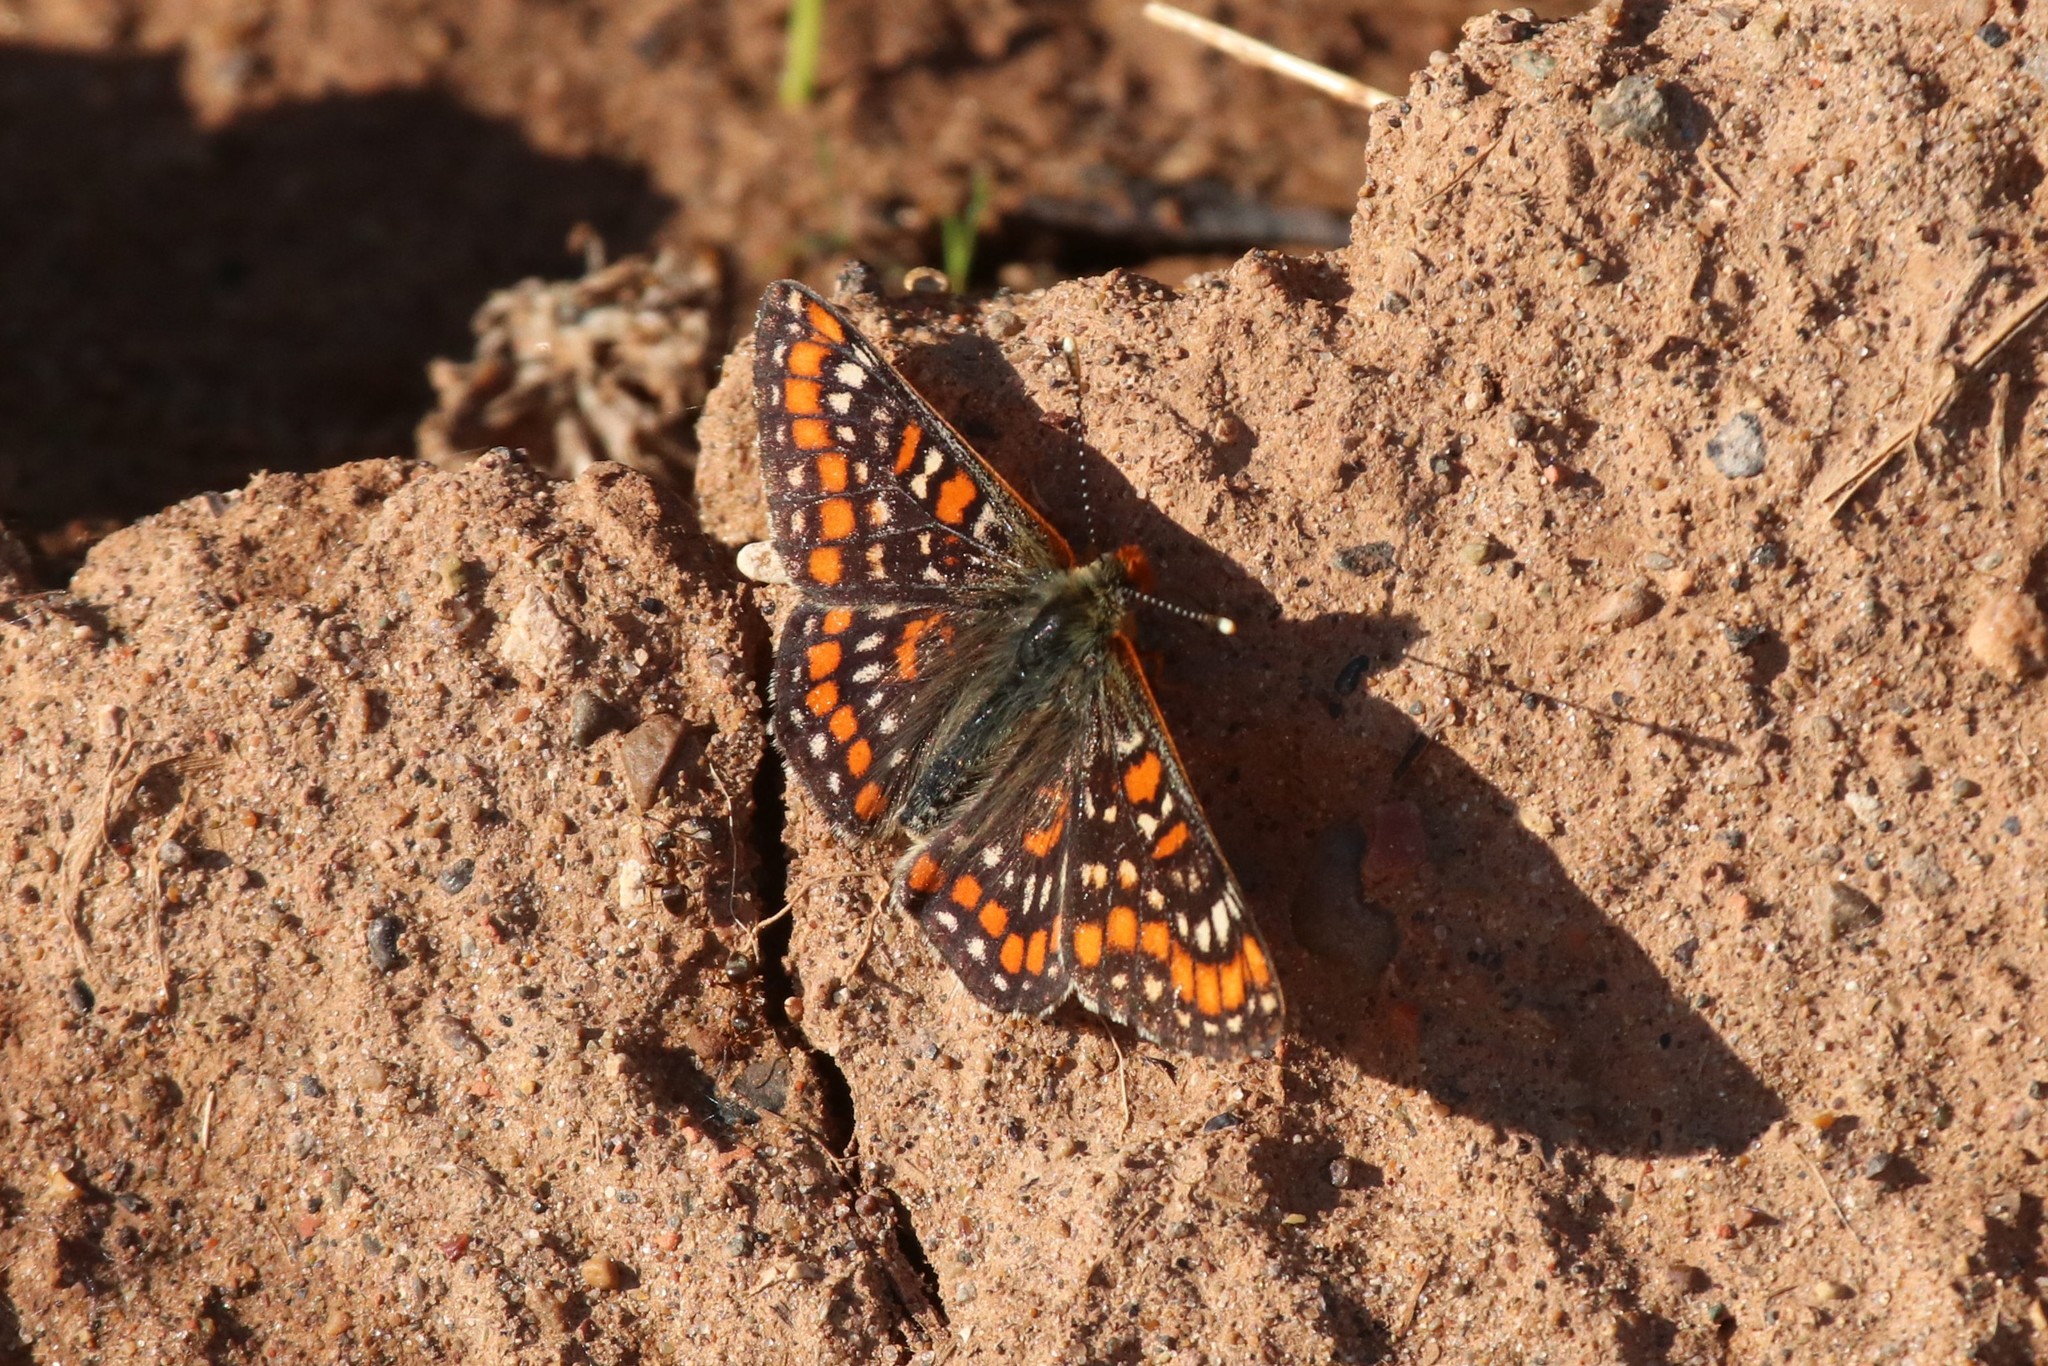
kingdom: Animalia
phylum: Arthropoda
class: Insecta
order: Lepidoptera
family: Nymphalidae
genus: Euphydryas
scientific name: Euphydryas maturna
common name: Scarce fritillary
